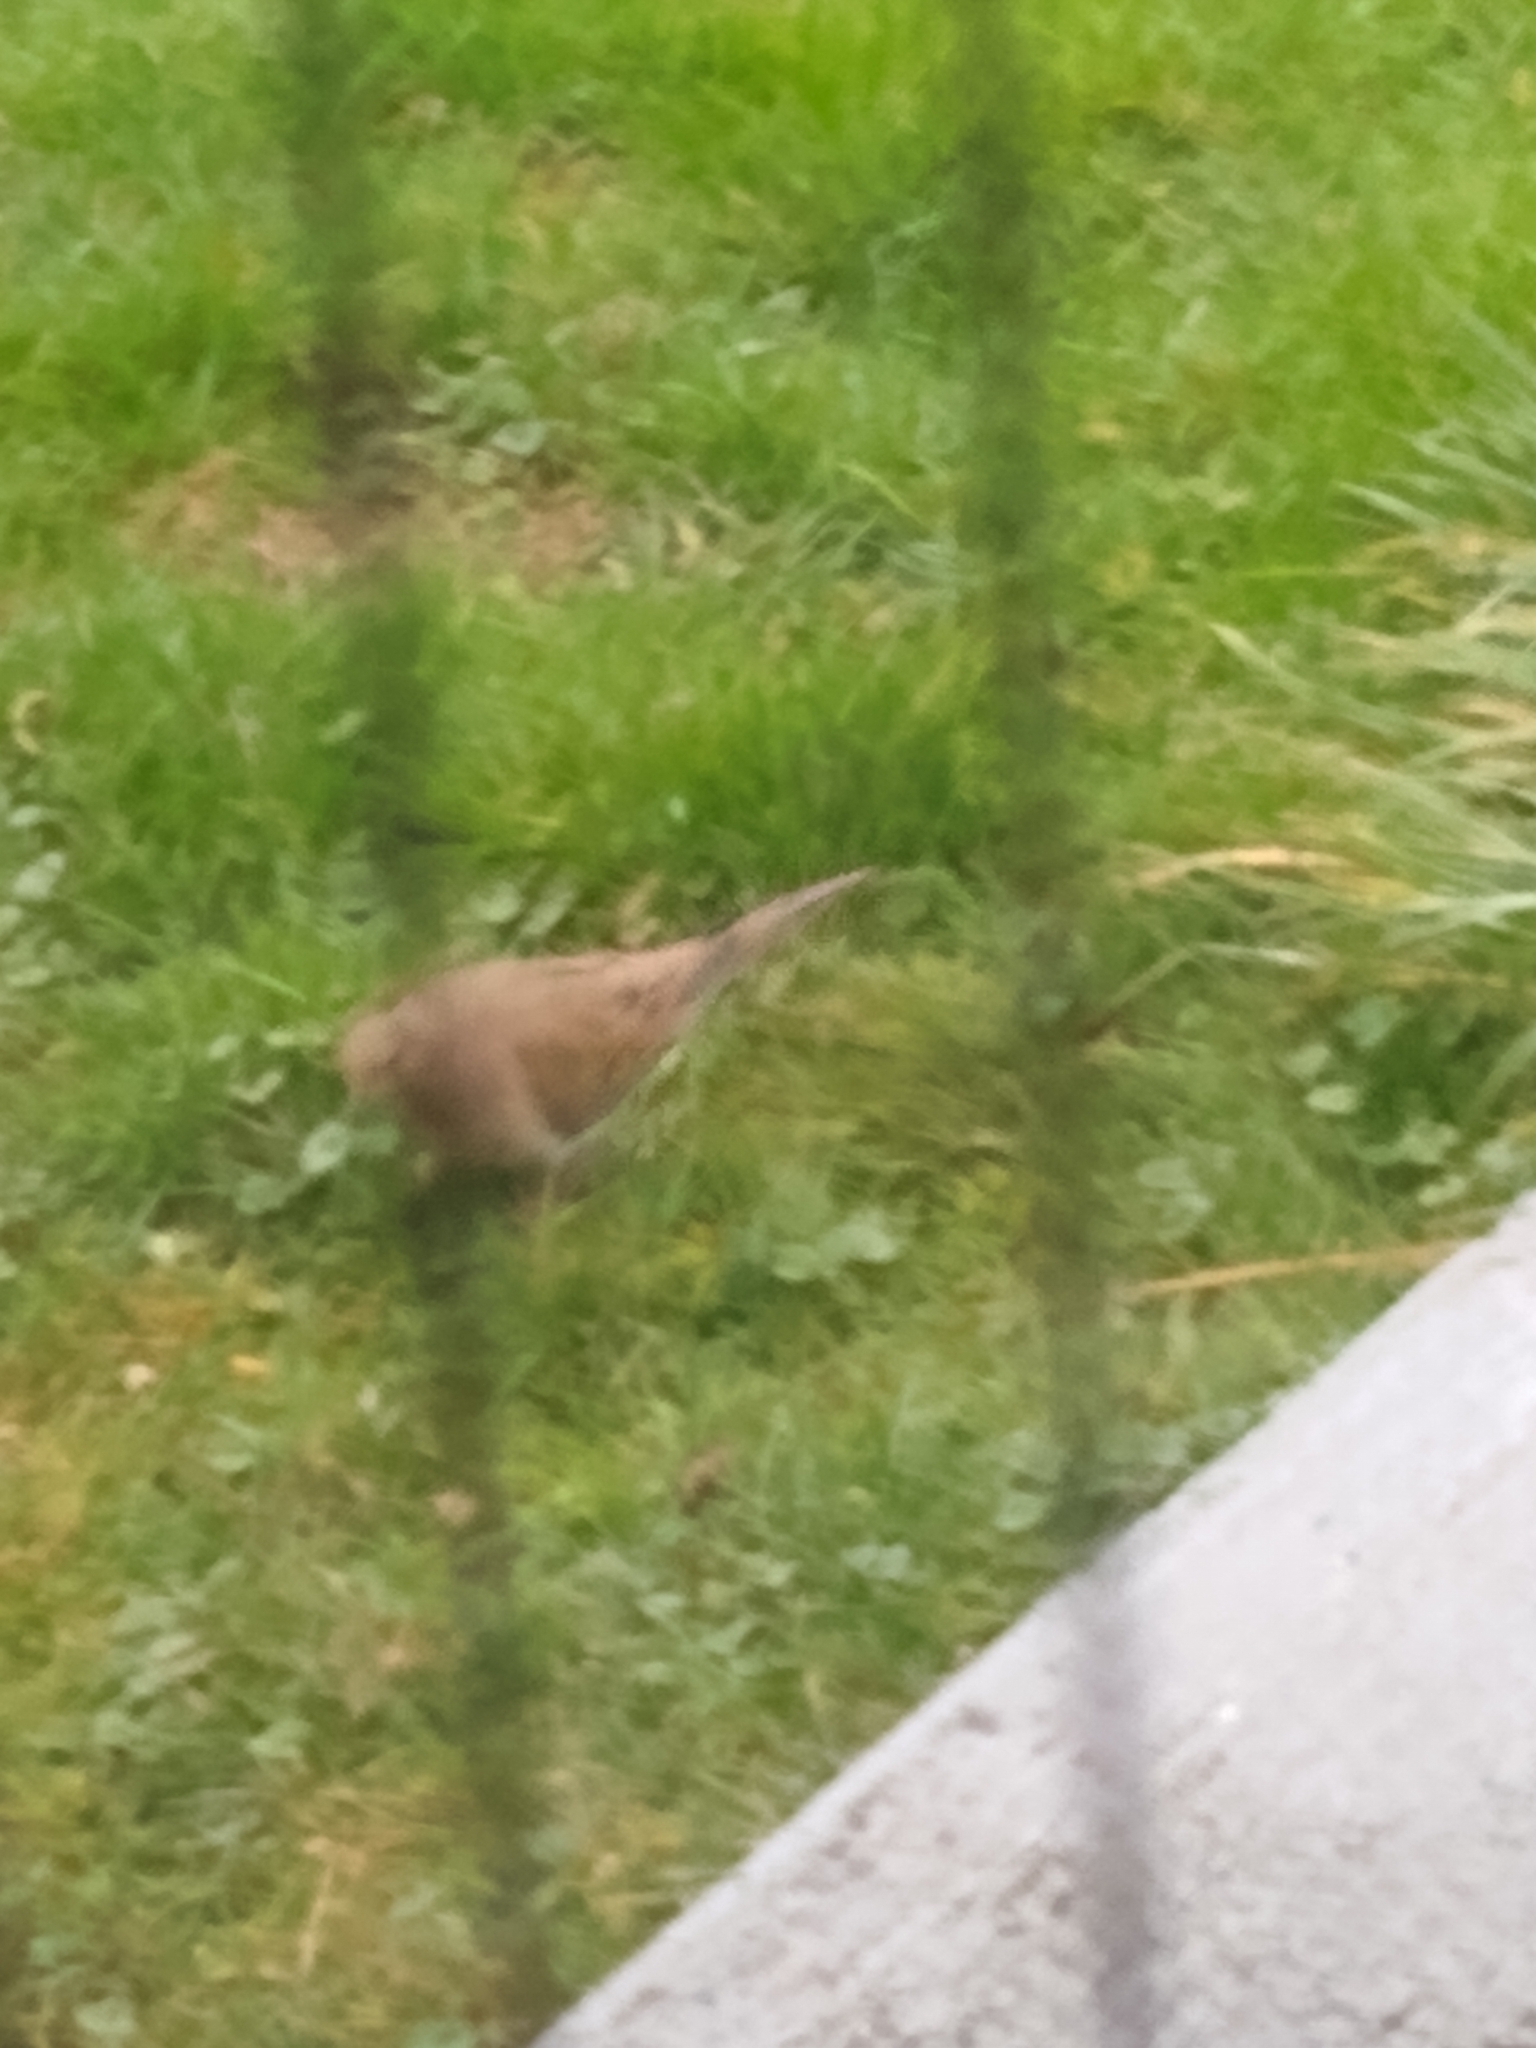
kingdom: Animalia
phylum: Chordata
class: Aves
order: Columbiformes
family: Columbidae
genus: Zenaida
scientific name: Zenaida macroura
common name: Mourning dove
